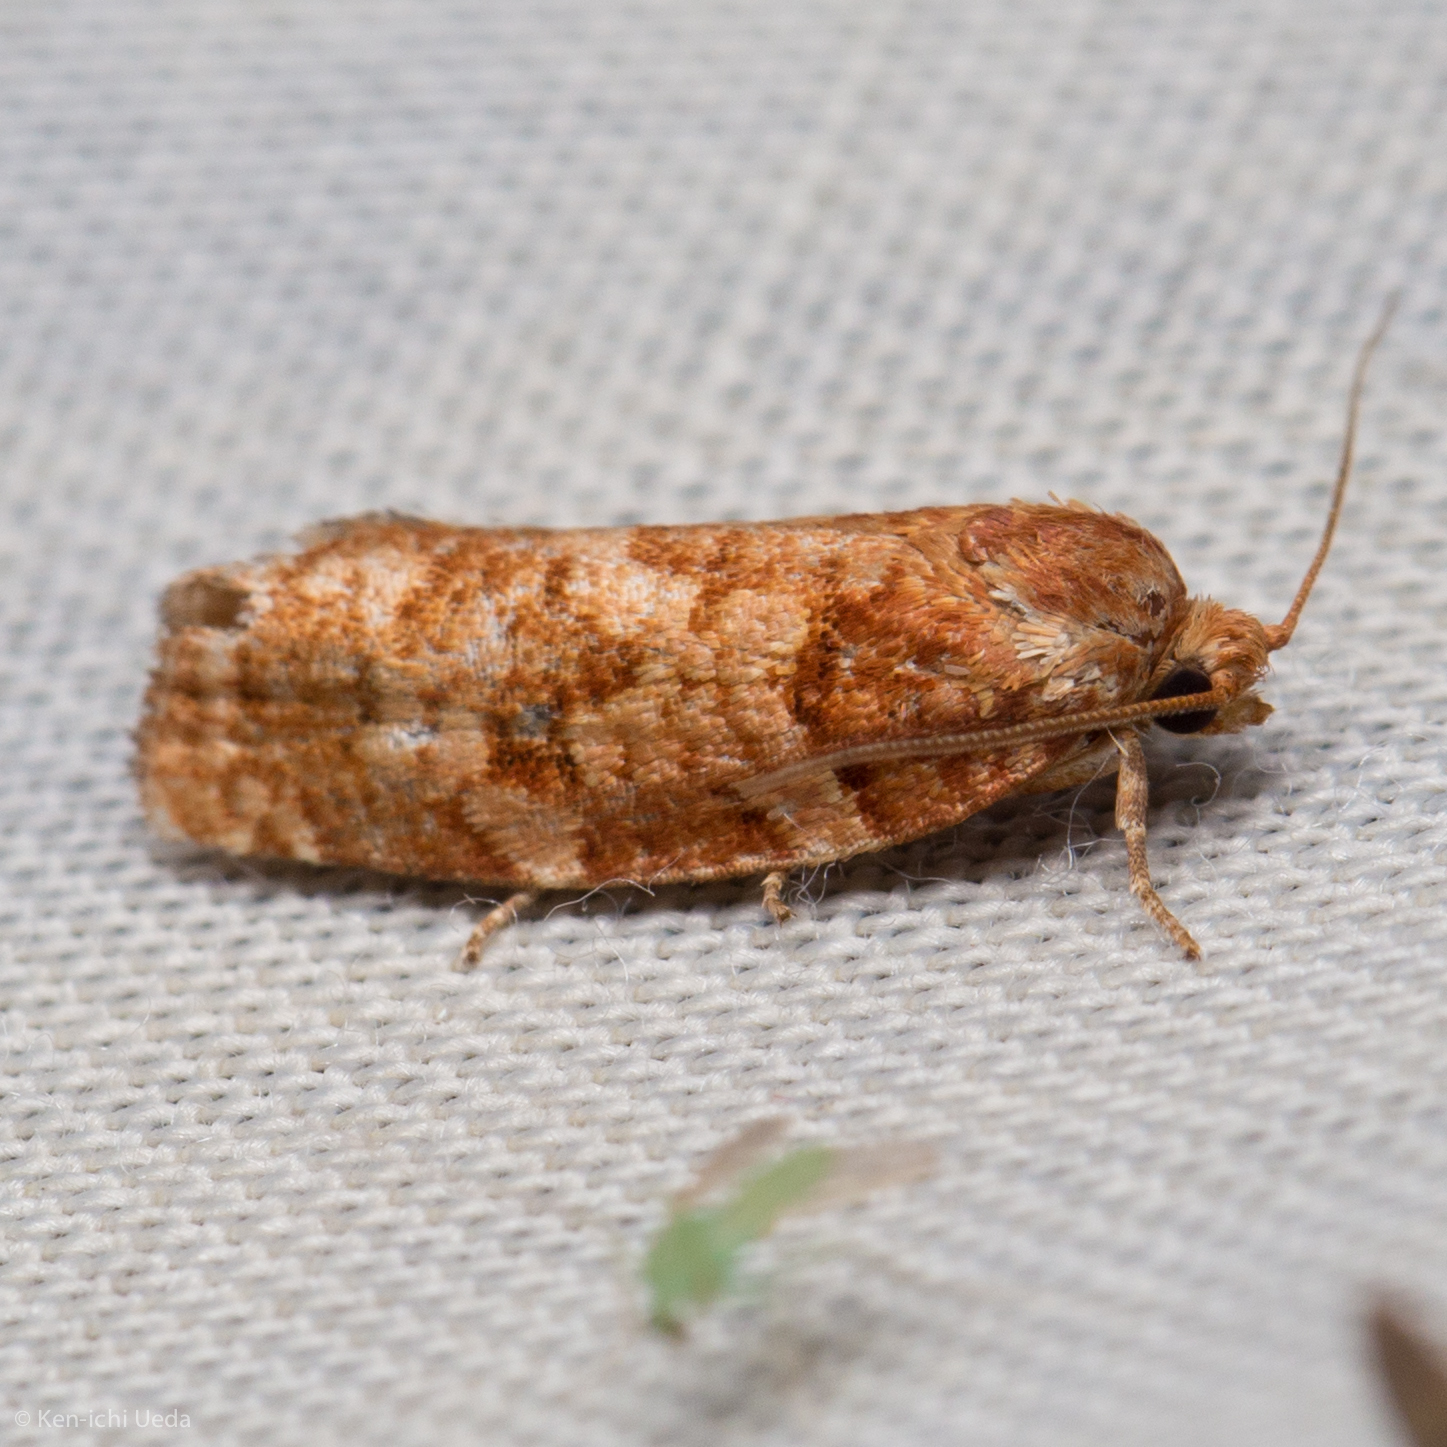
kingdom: Animalia
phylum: Arthropoda
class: Insecta
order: Lepidoptera
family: Tortricidae
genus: Choristoneura
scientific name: Choristoneura pinus
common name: Jack pine budworm
